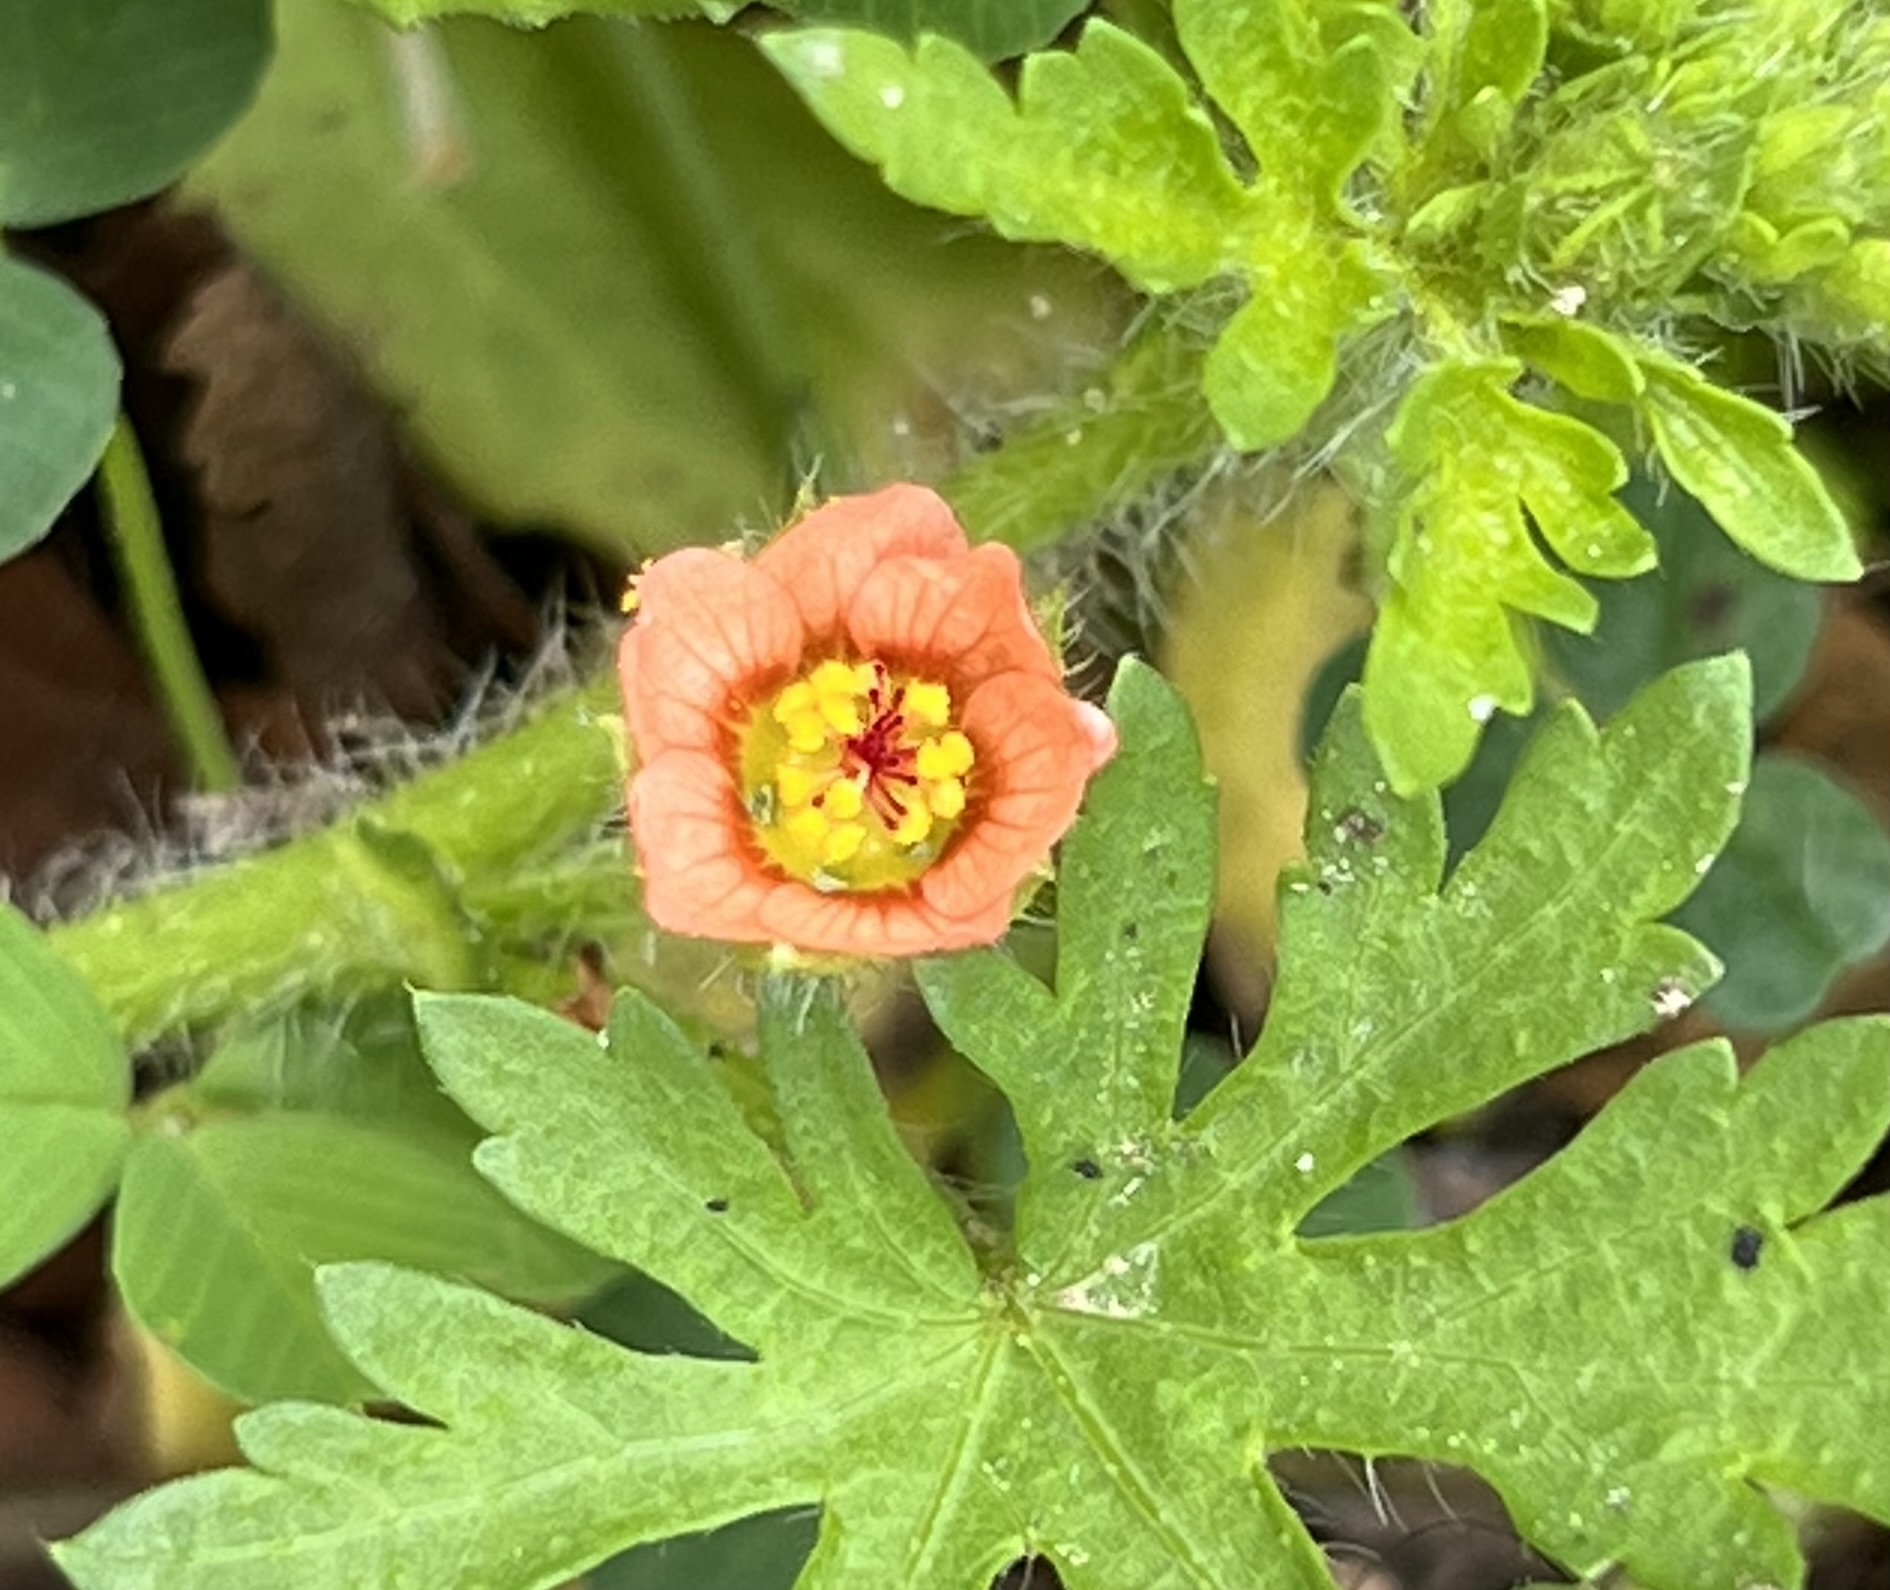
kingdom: Plantae
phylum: Tracheophyta
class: Magnoliopsida
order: Malvales
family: Malvaceae
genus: Modiola
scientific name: Modiola caroliniana
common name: Carolina bristlemallow
